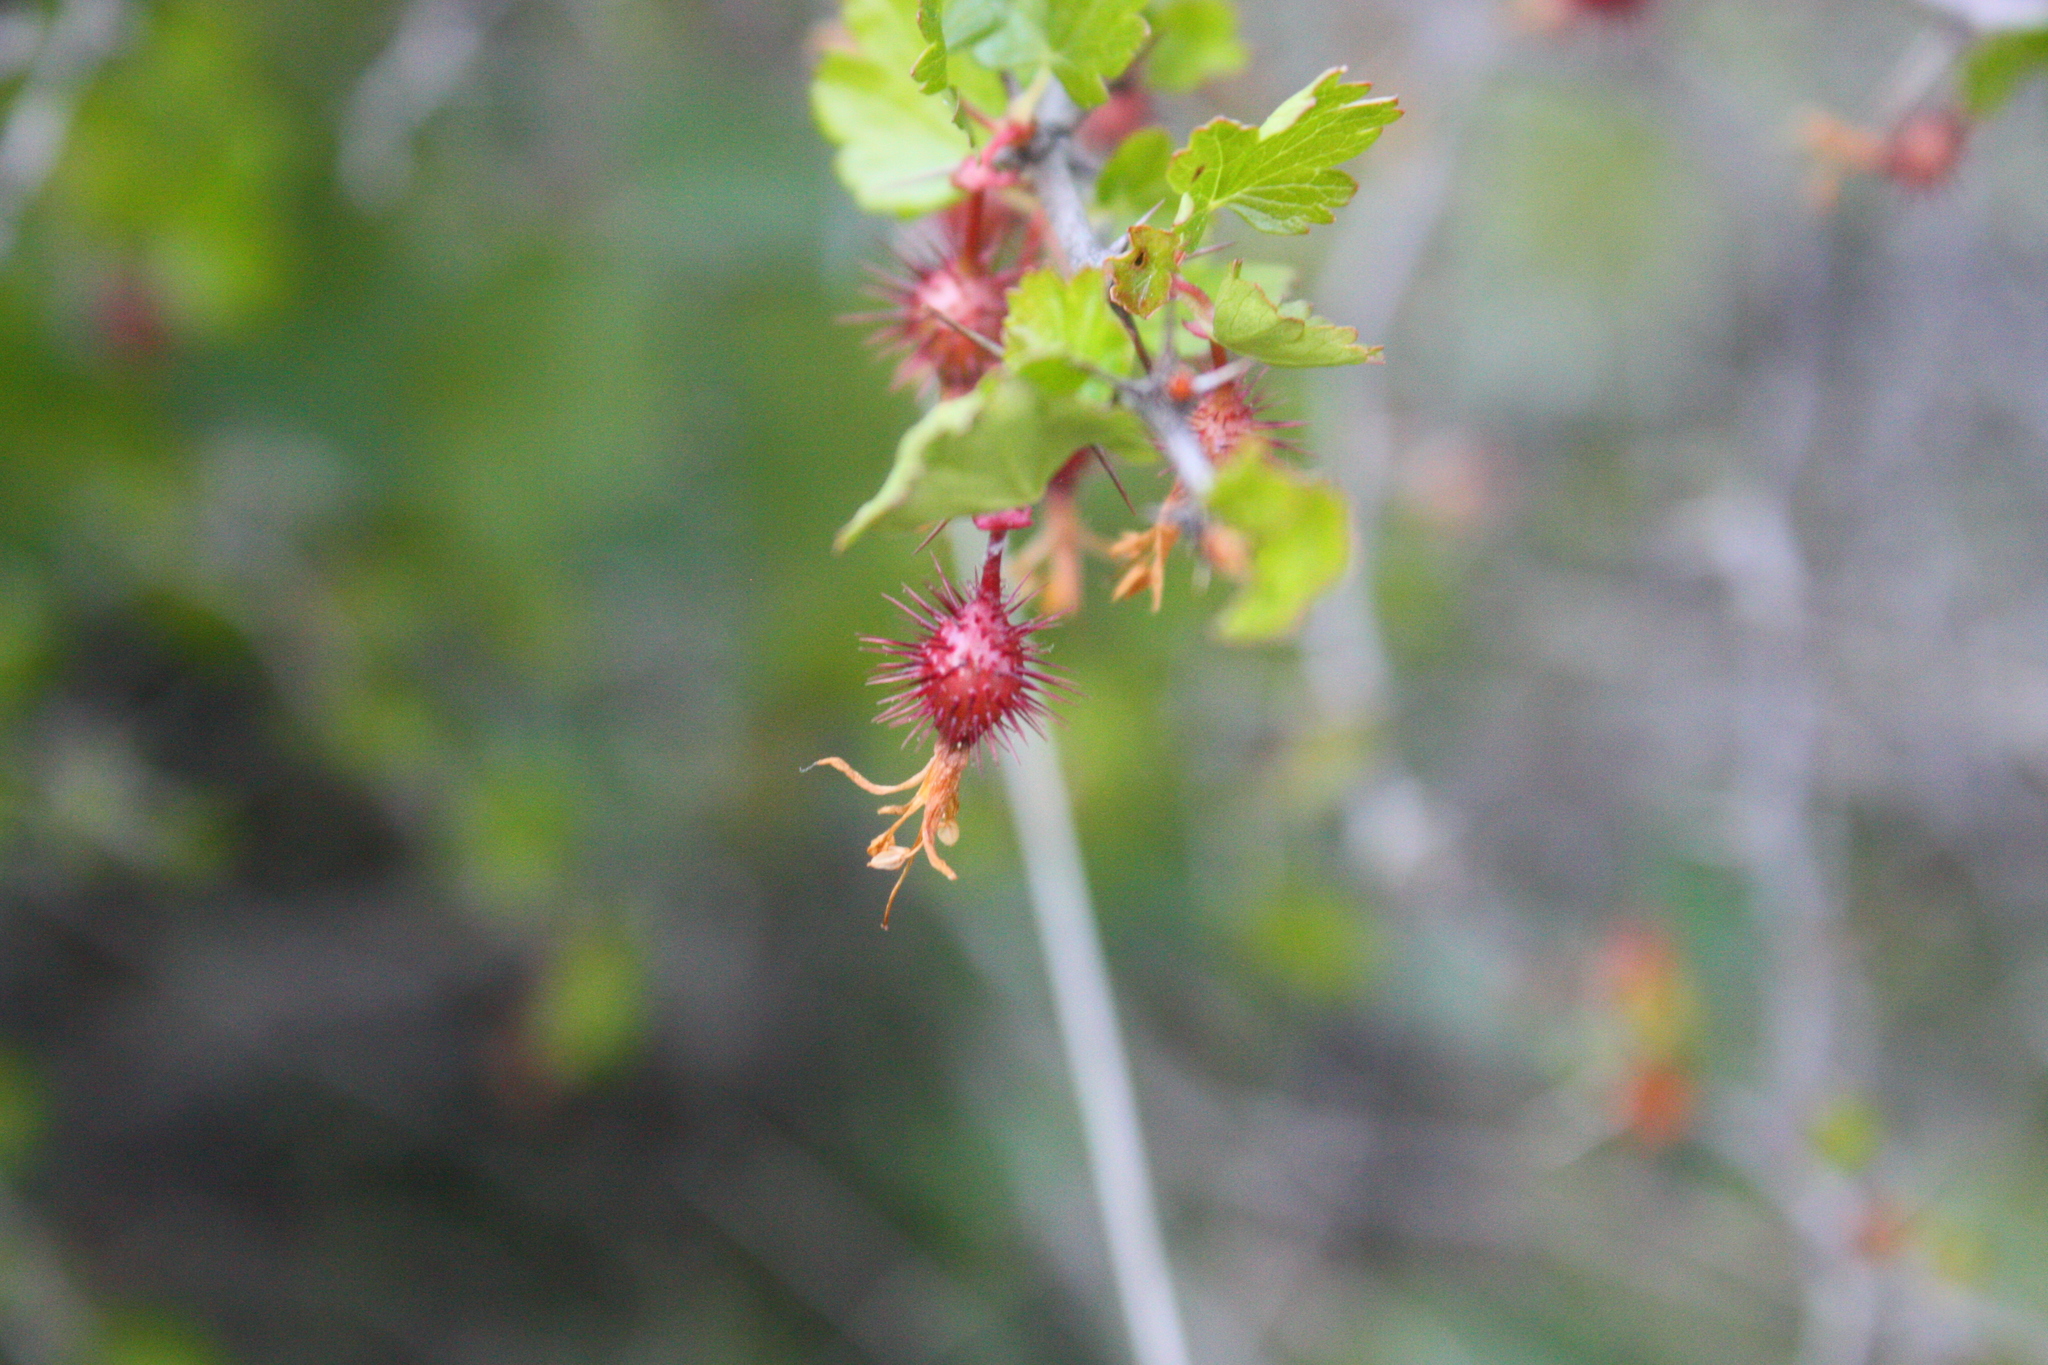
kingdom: Plantae
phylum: Tracheophyta
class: Magnoliopsida
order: Saxifragales
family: Grossulariaceae
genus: Ribes
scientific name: Ribes californicum
